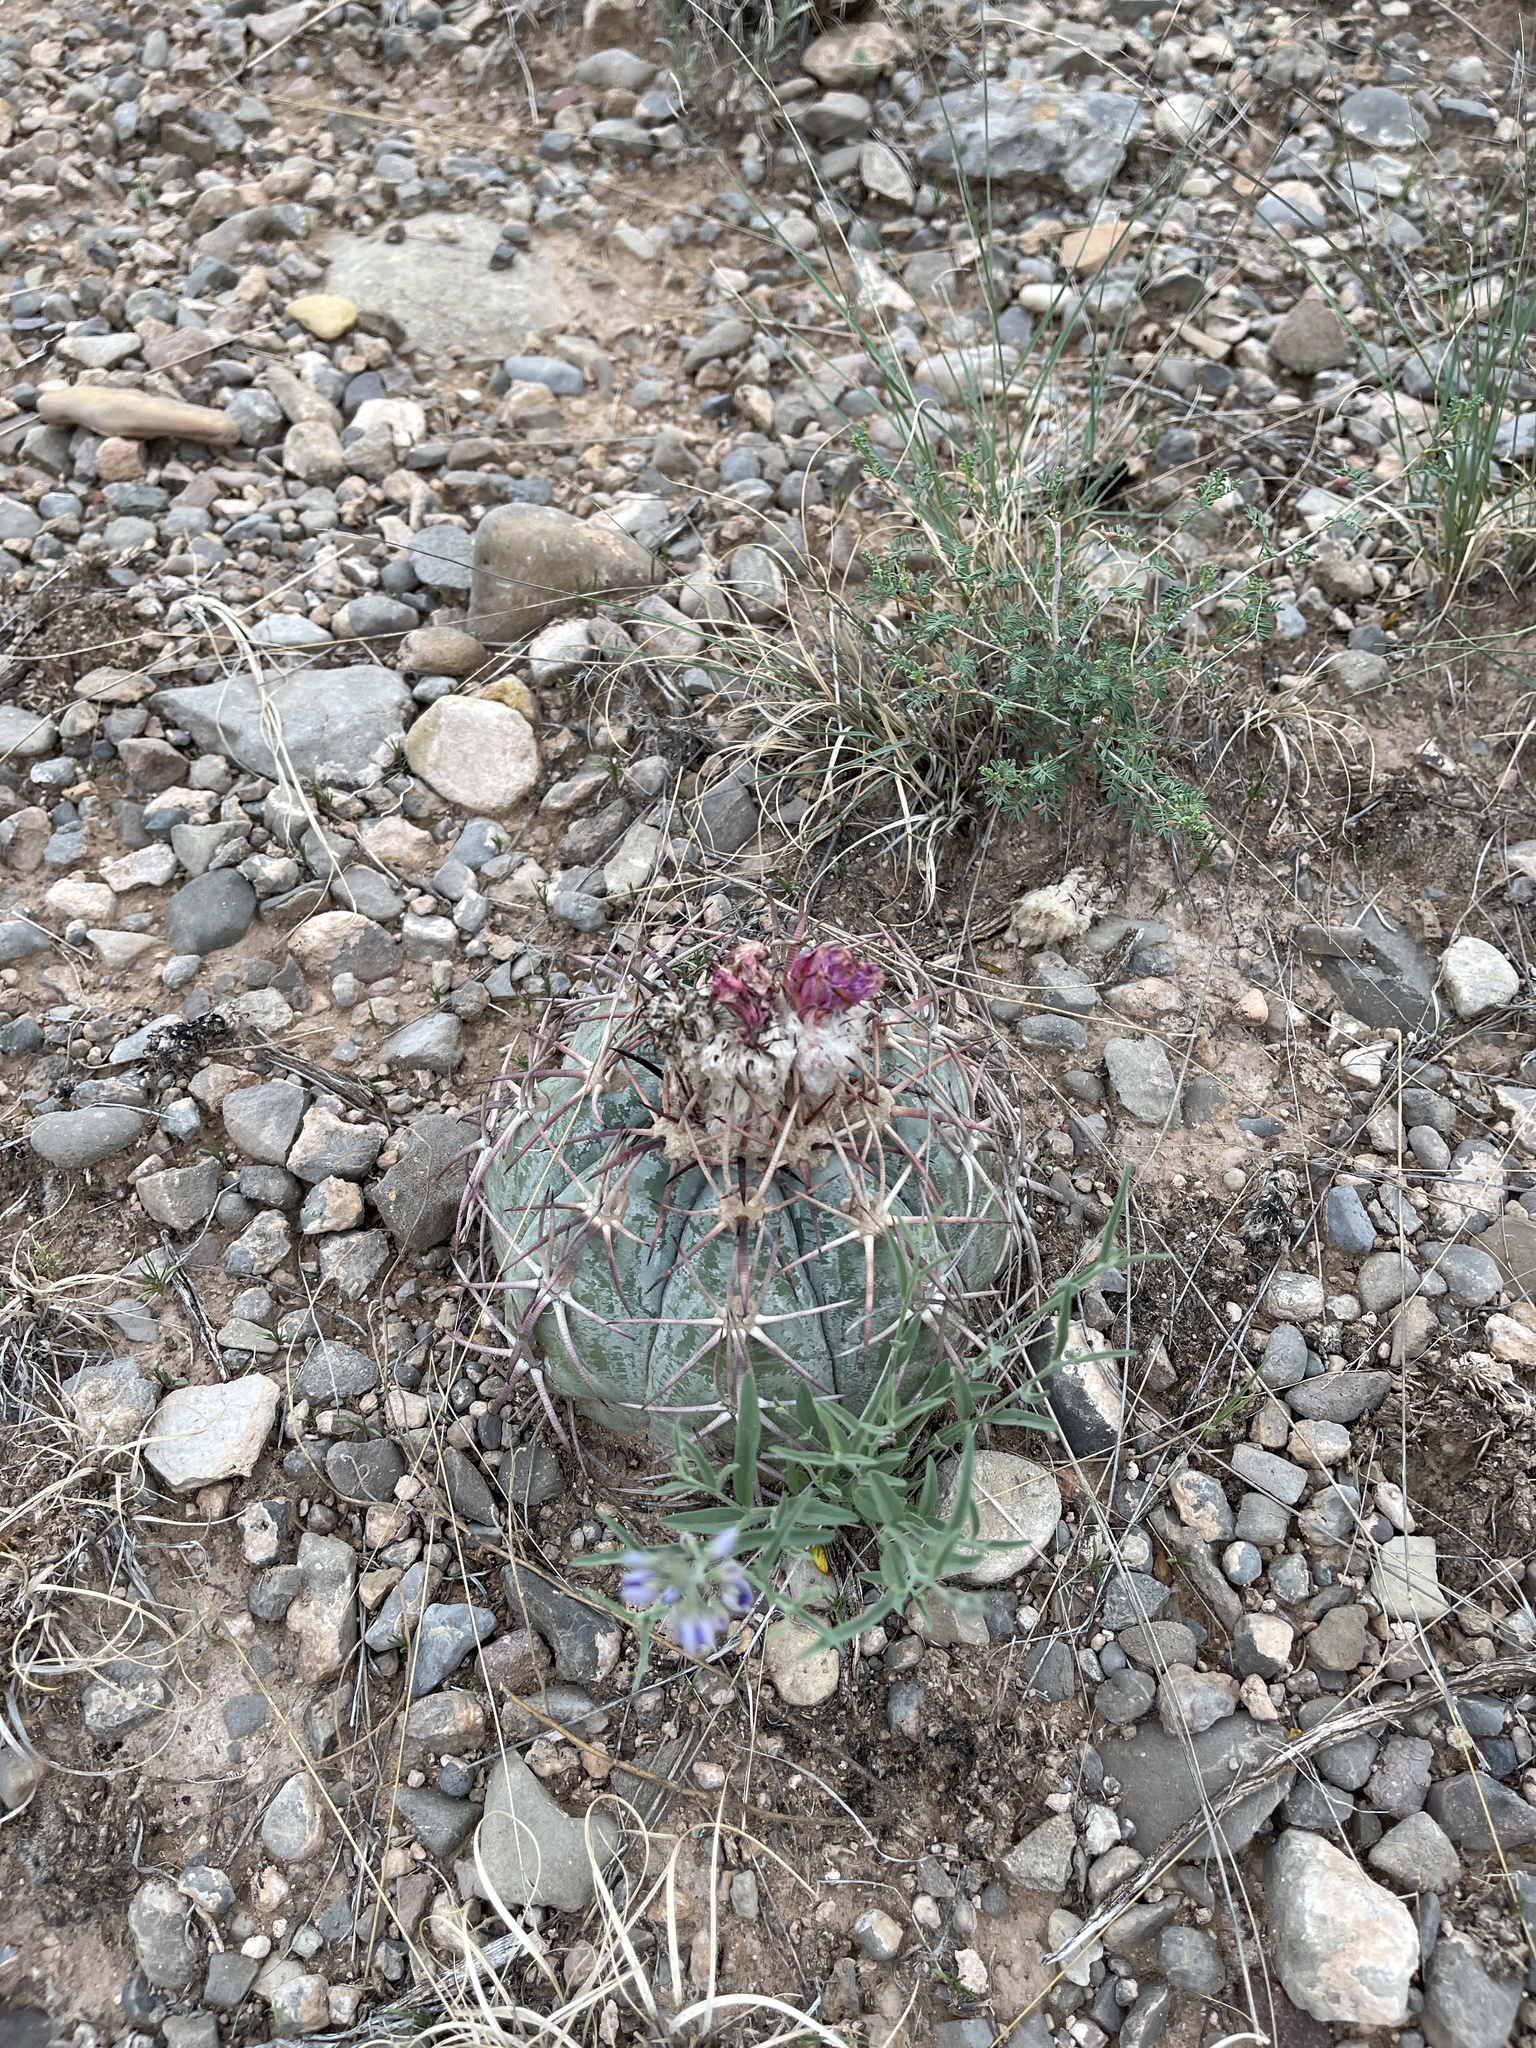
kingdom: Plantae
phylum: Tracheophyta
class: Magnoliopsida
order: Caryophyllales
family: Cactaceae
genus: Echinocactus
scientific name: Echinocactus horizonthalonius
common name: Devilshead
